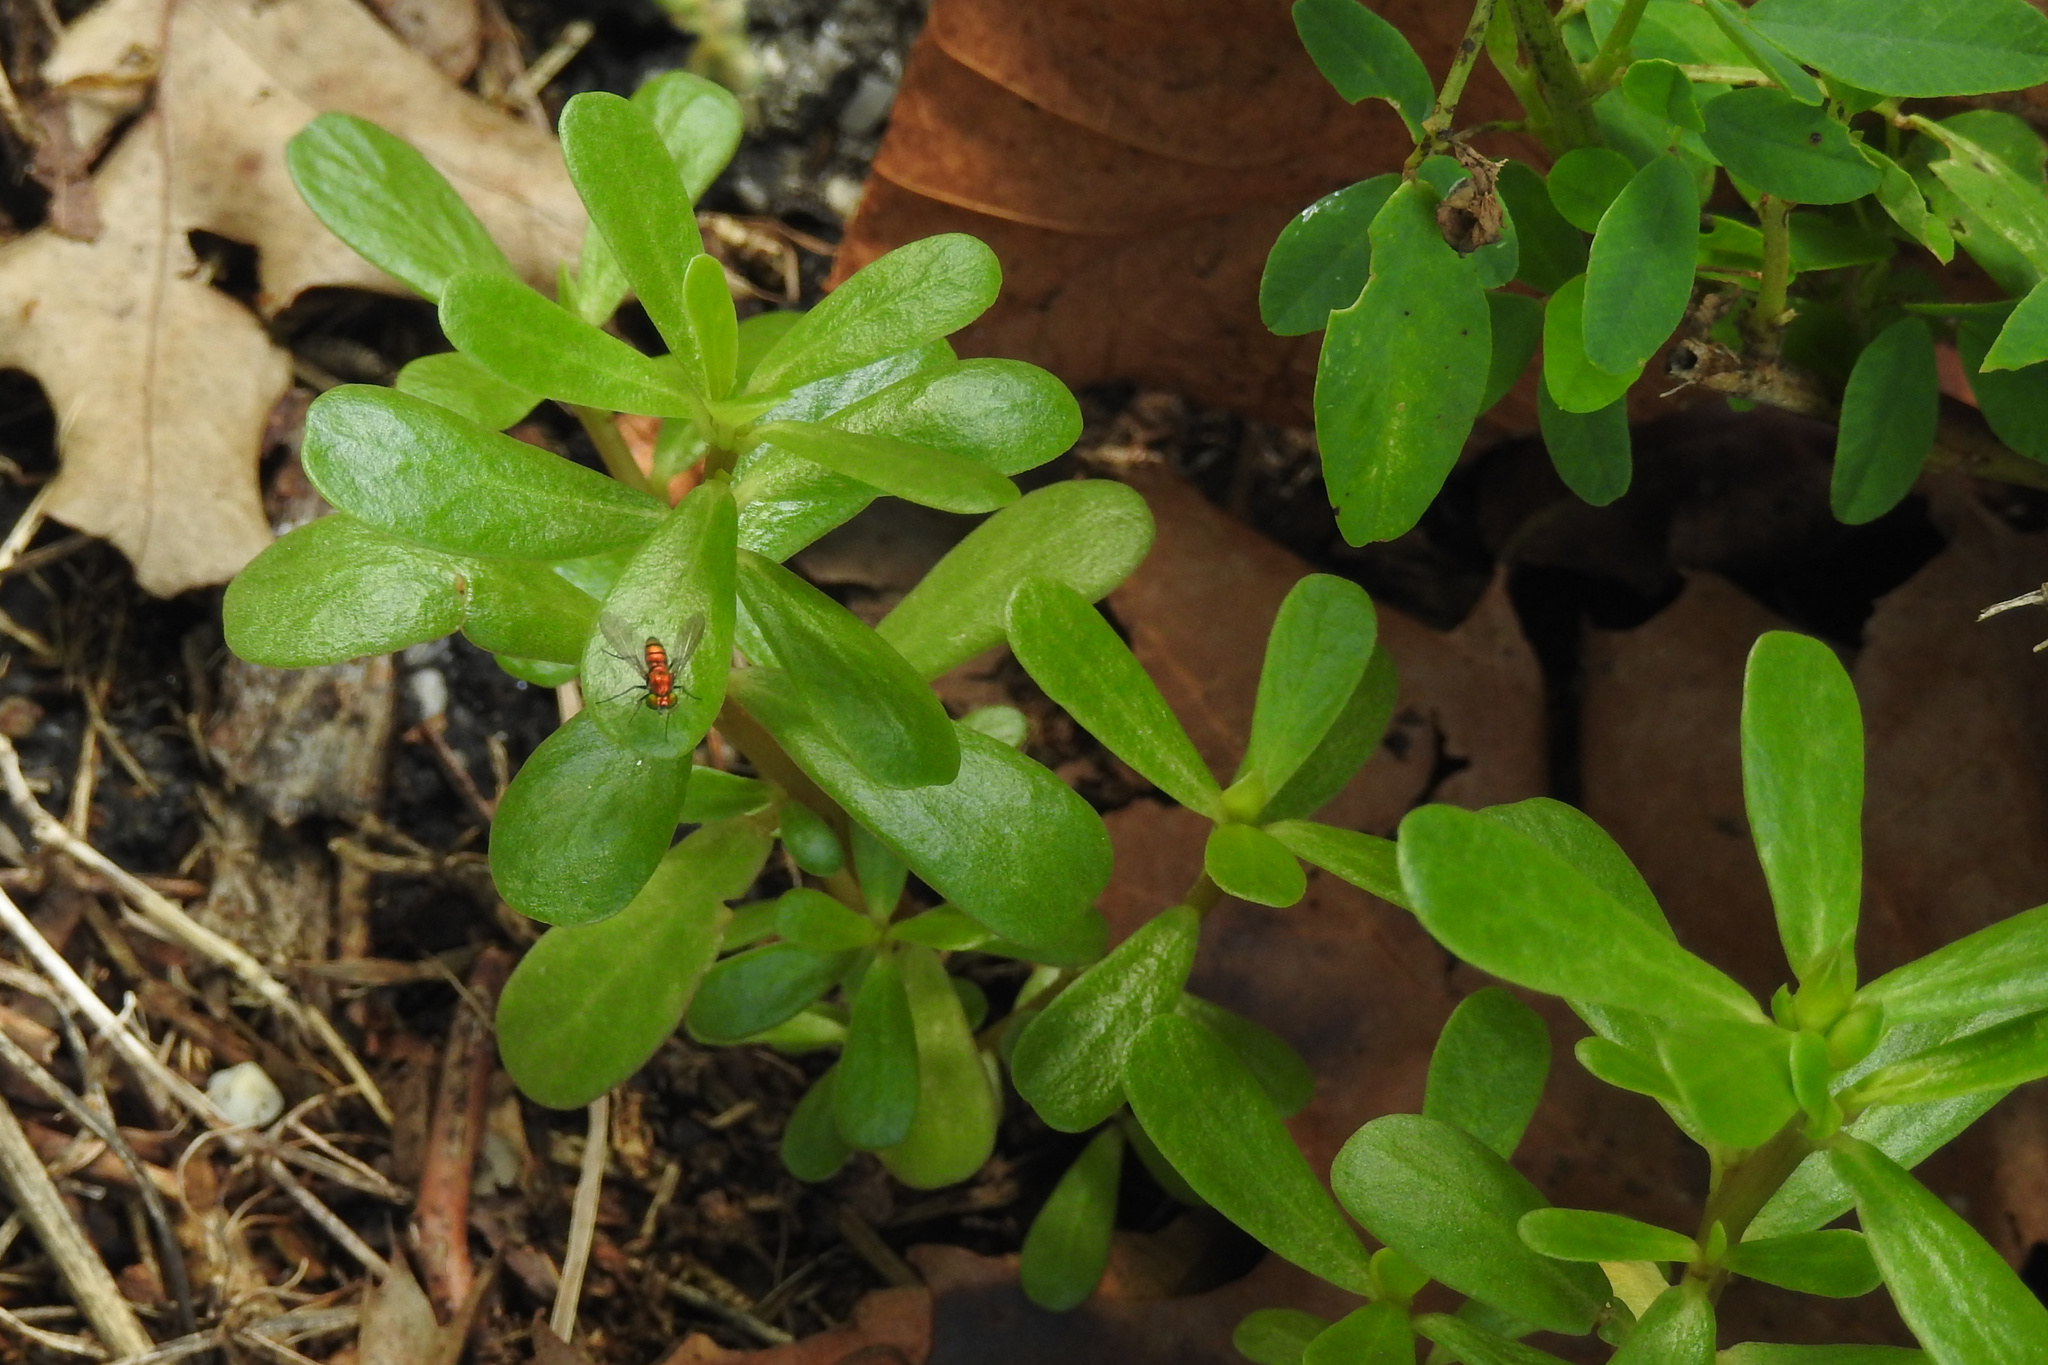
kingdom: Plantae
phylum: Tracheophyta
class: Magnoliopsida
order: Caryophyllales
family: Portulacaceae
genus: Portulaca
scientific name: Portulaca oleracea
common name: Common purslane
